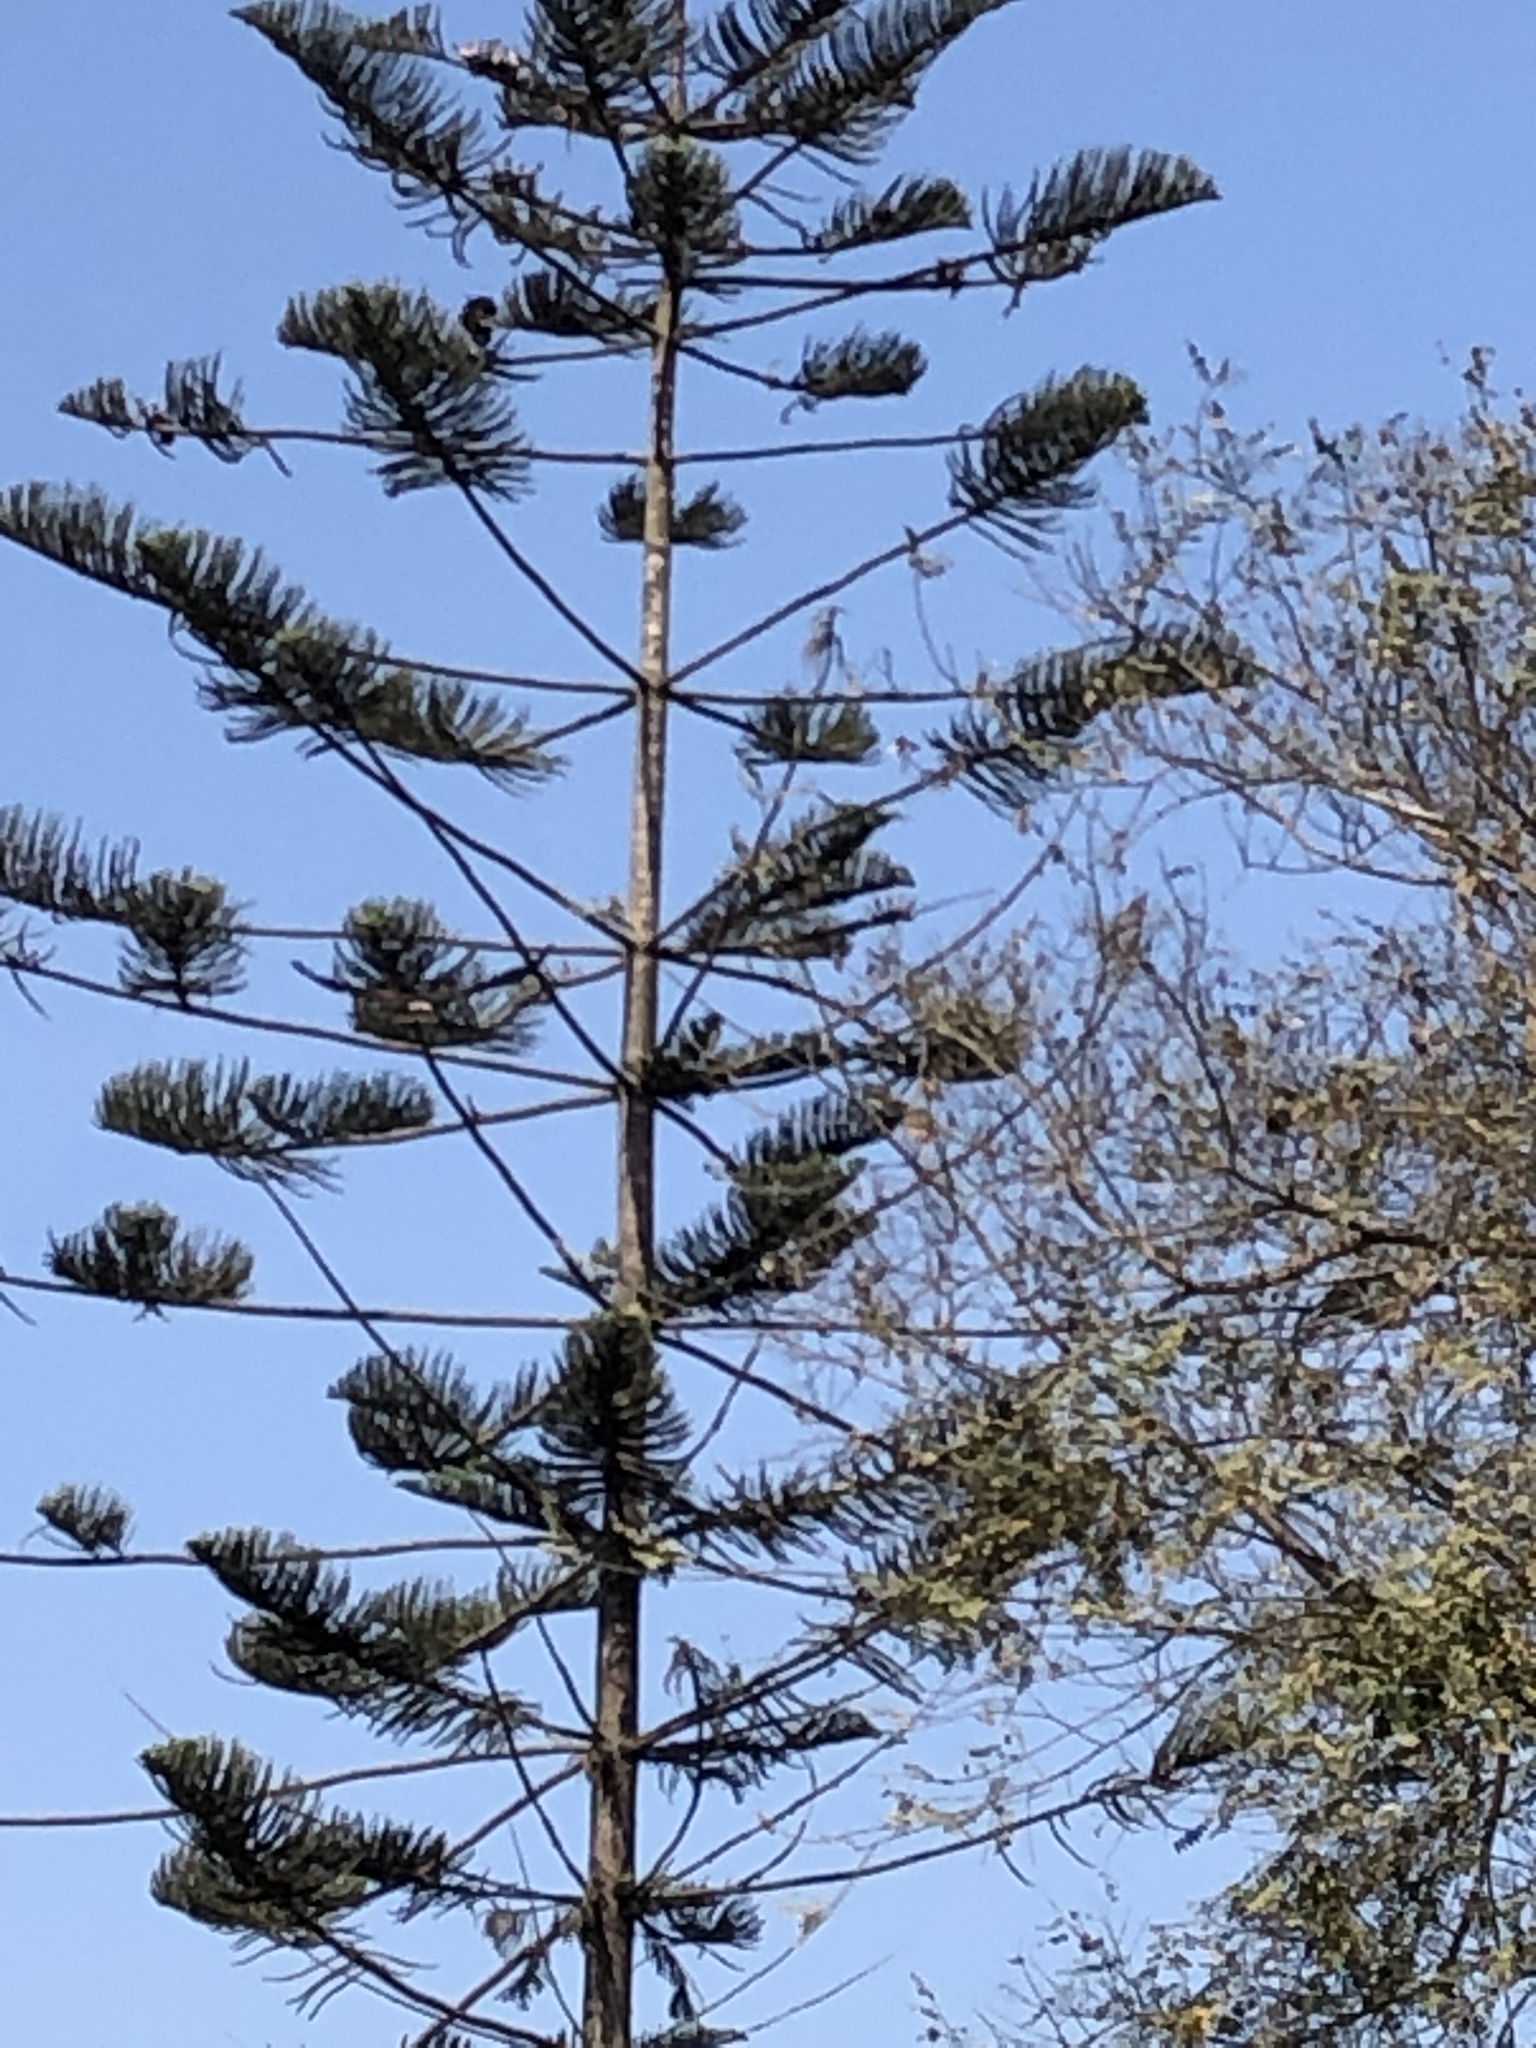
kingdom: Animalia
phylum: Chordata
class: Aves
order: Accipitriformes
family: Accipitridae
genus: Parabuteo
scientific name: Parabuteo unicinctus
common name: Harris's hawk
